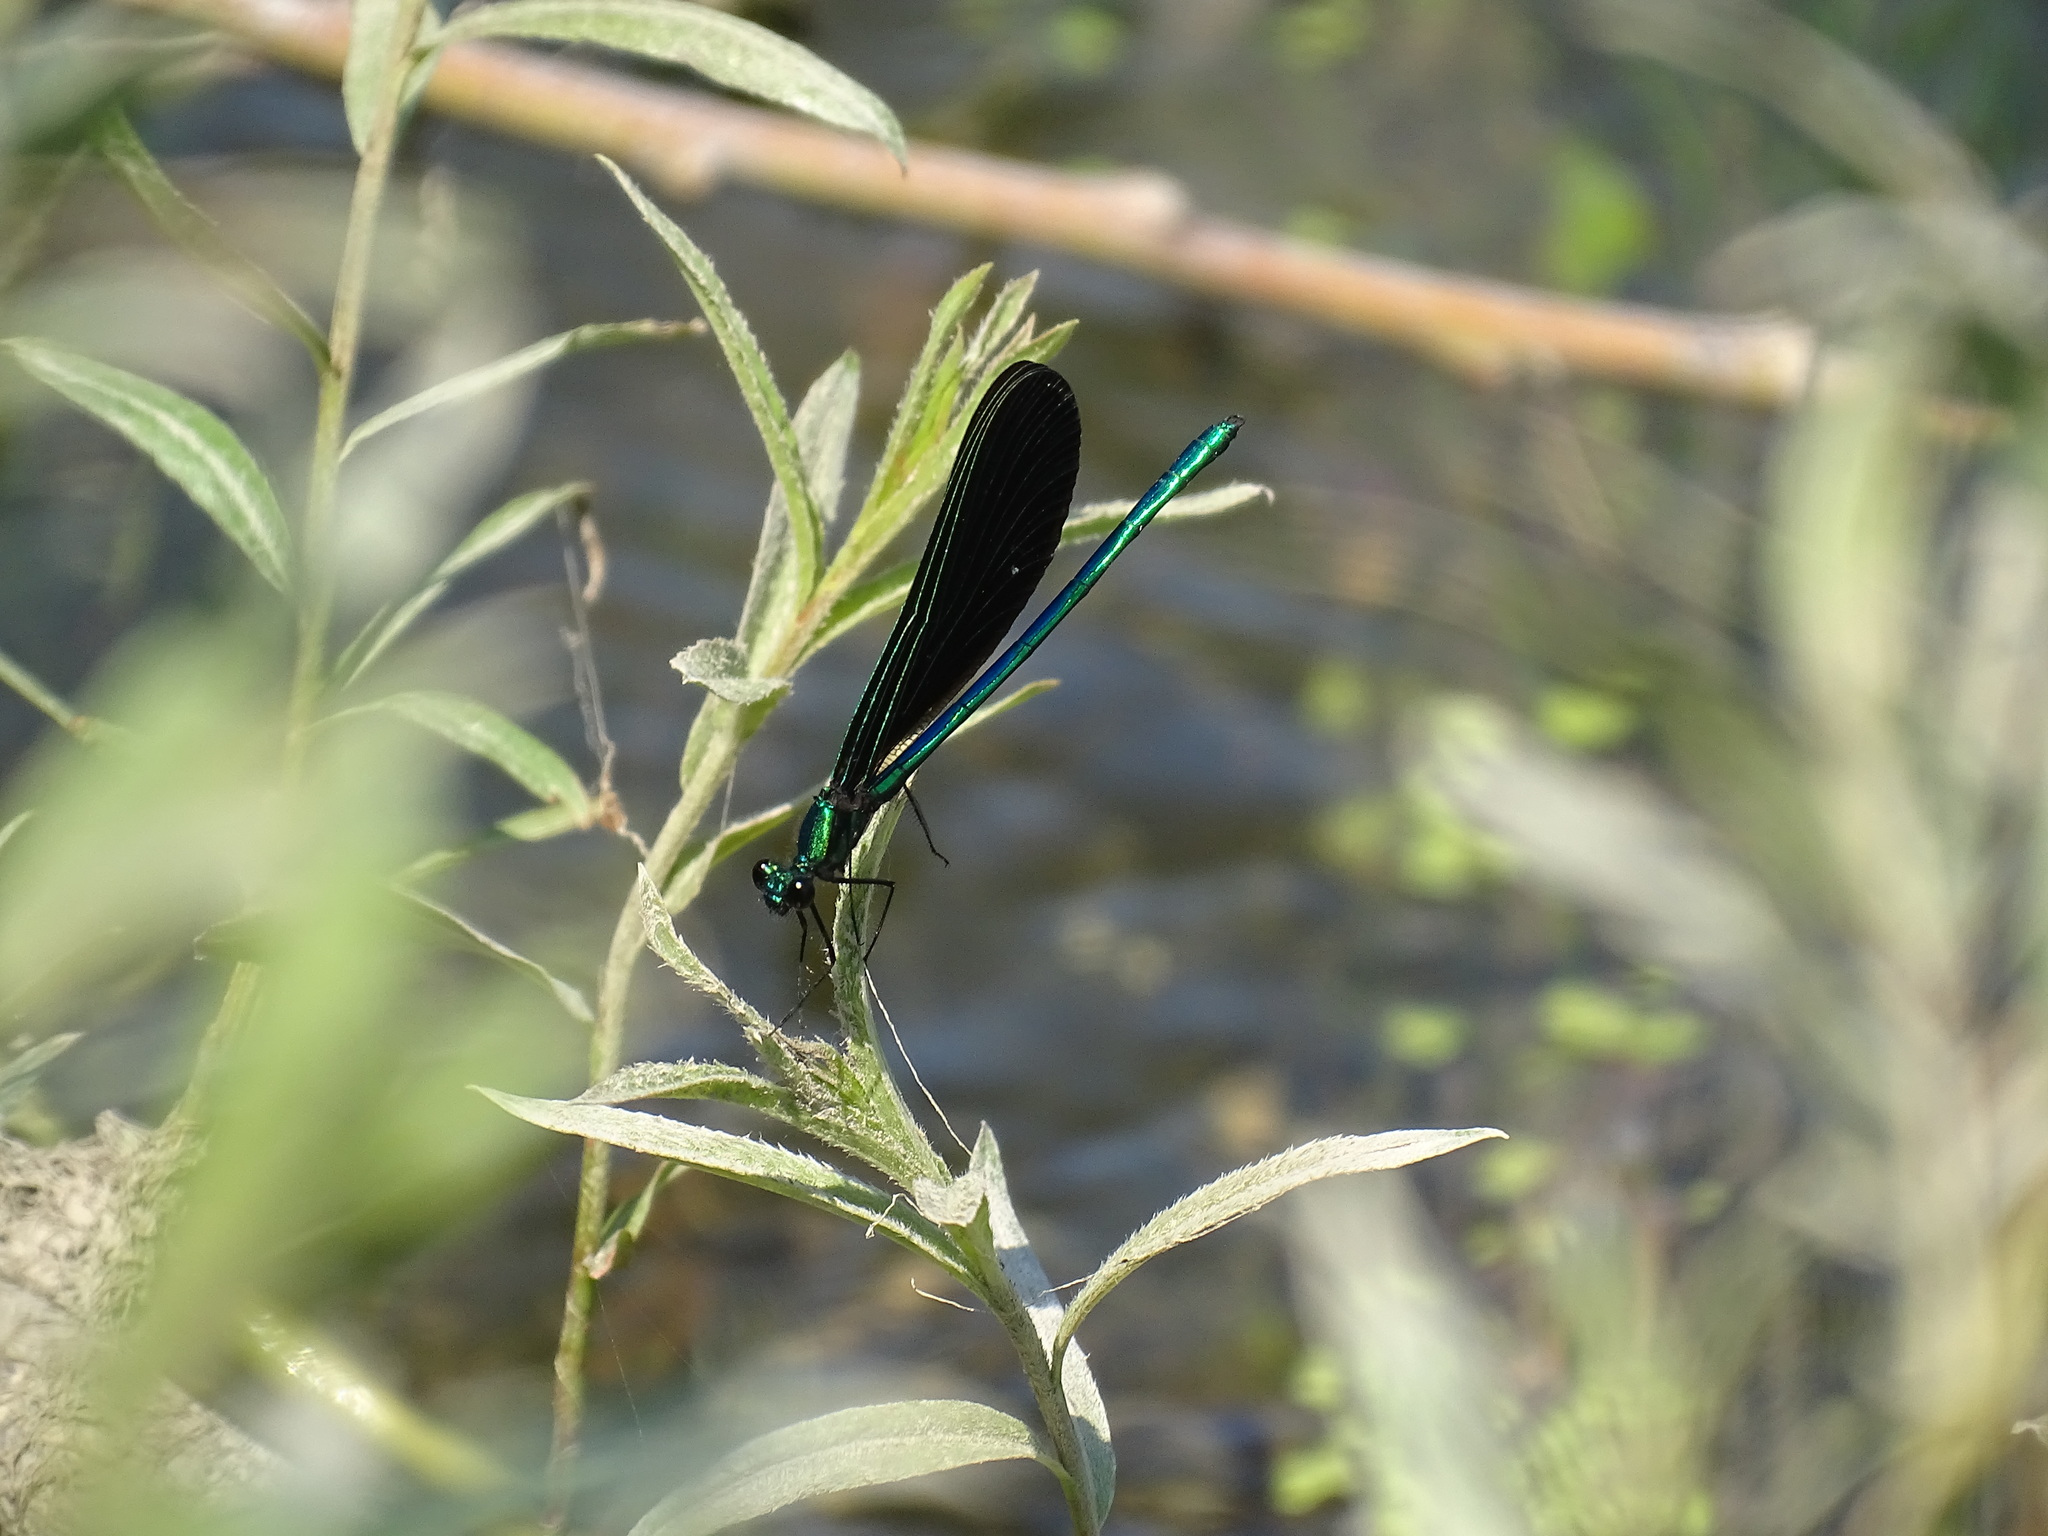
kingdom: Animalia
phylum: Arthropoda
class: Insecta
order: Odonata
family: Calopterygidae
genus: Calopteryx
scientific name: Calopteryx maculata
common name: Ebony jewelwing
